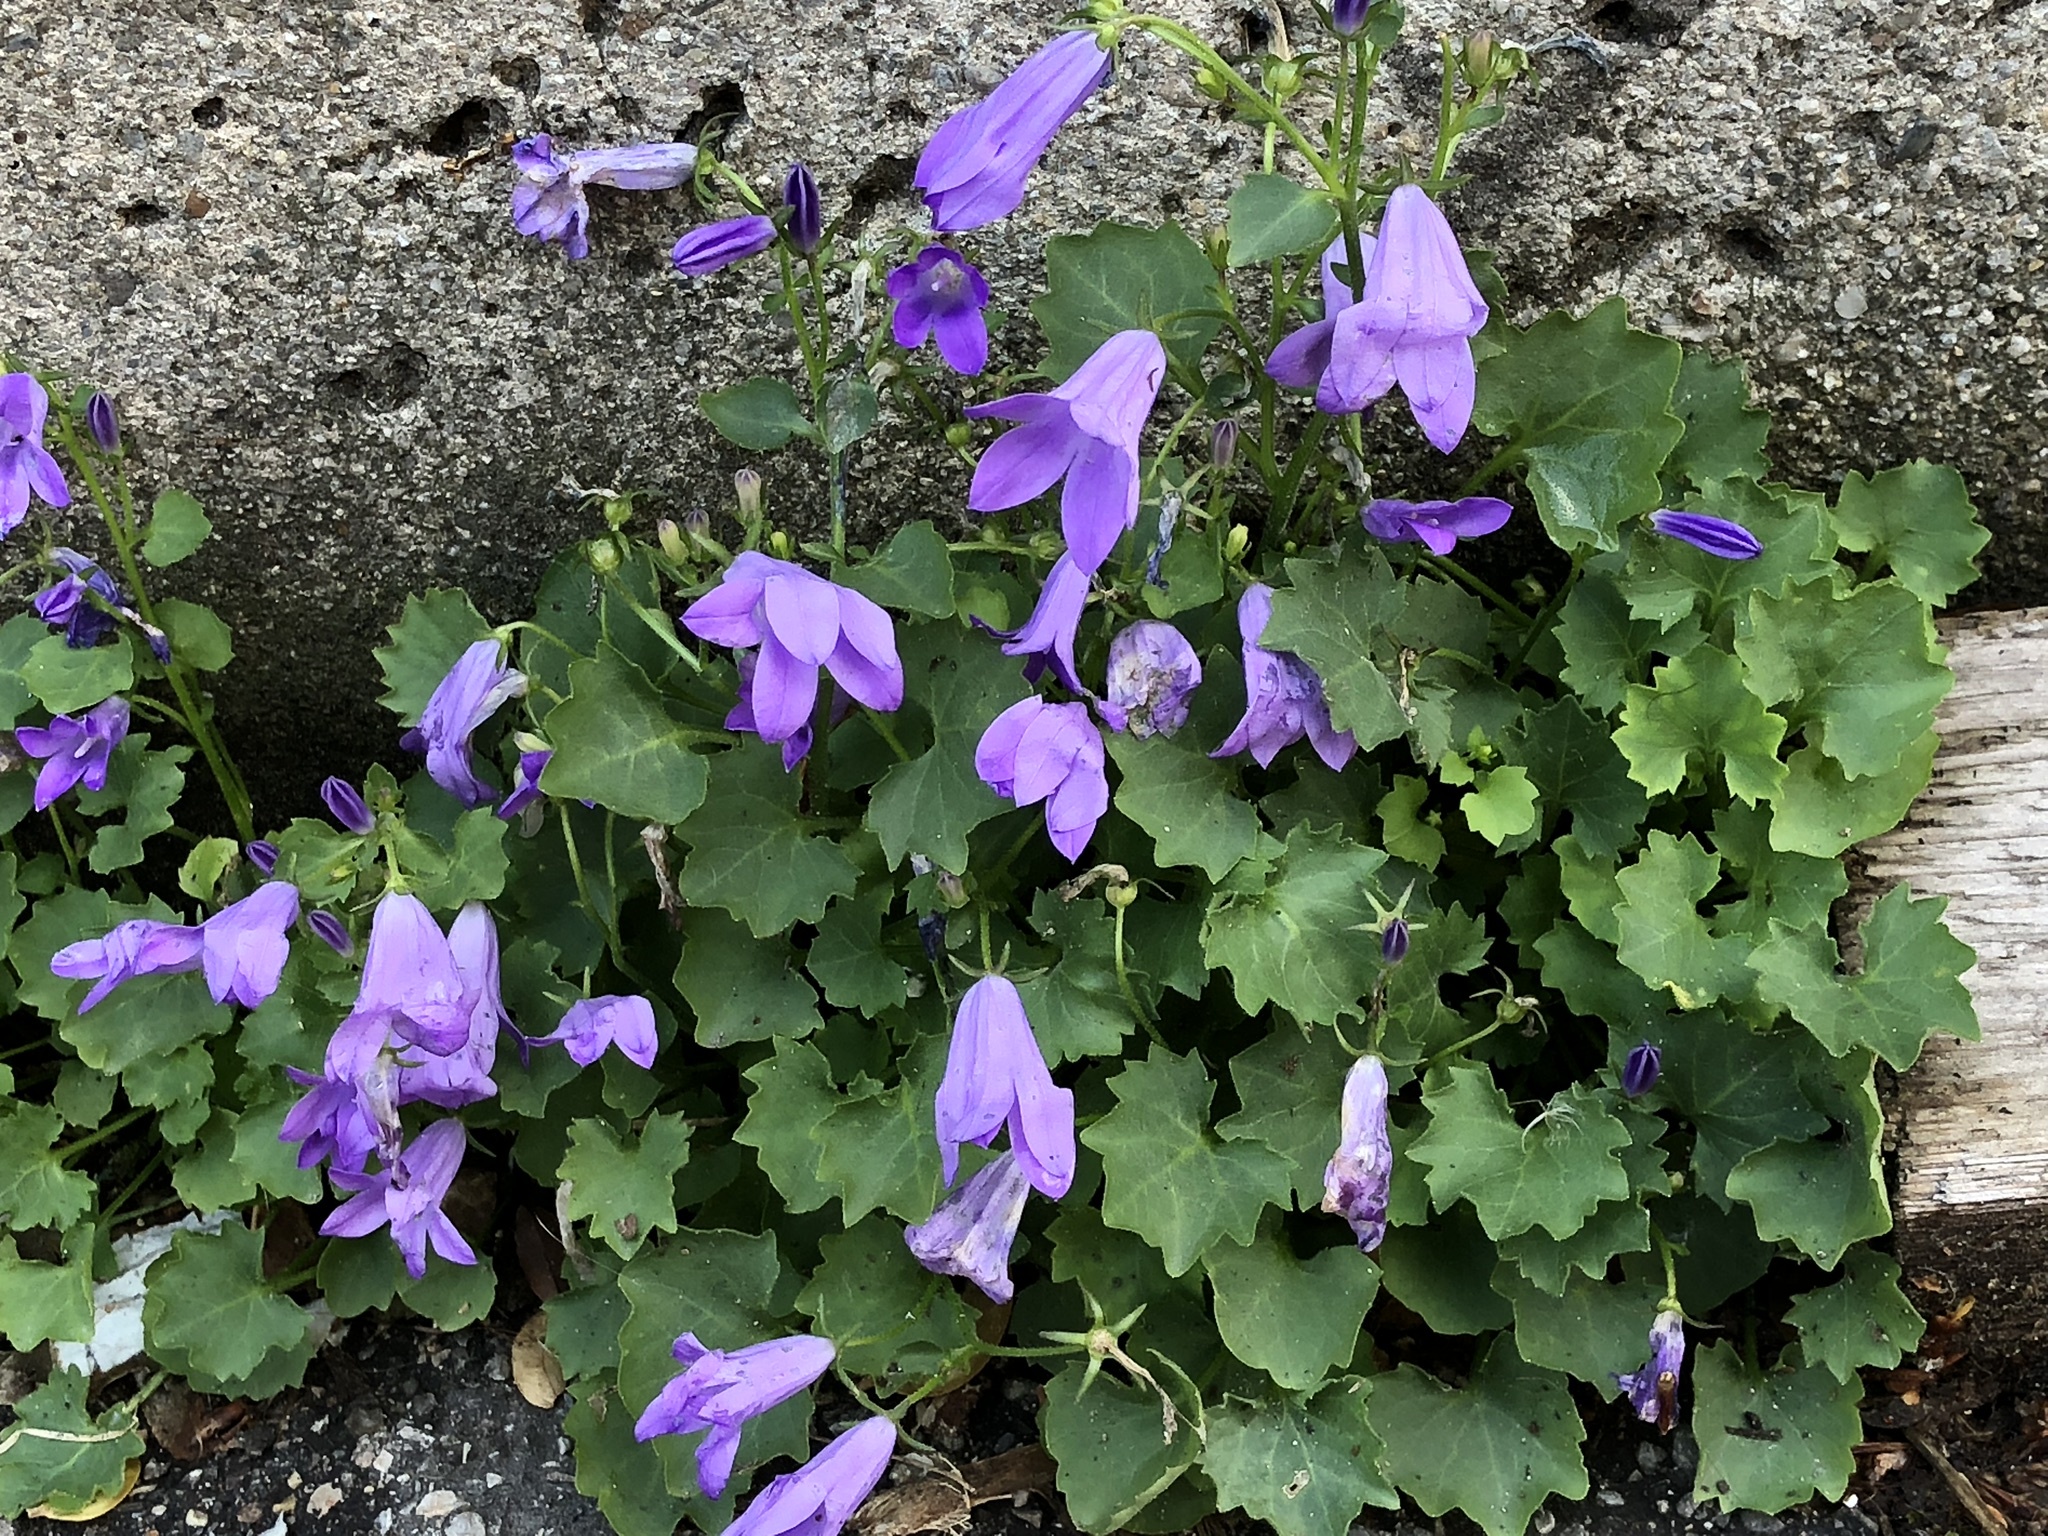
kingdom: Plantae
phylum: Tracheophyta
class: Magnoliopsida
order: Asterales
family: Campanulaceae
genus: Campanula
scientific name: Campanula portenschlagiana
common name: Adria bellflower
